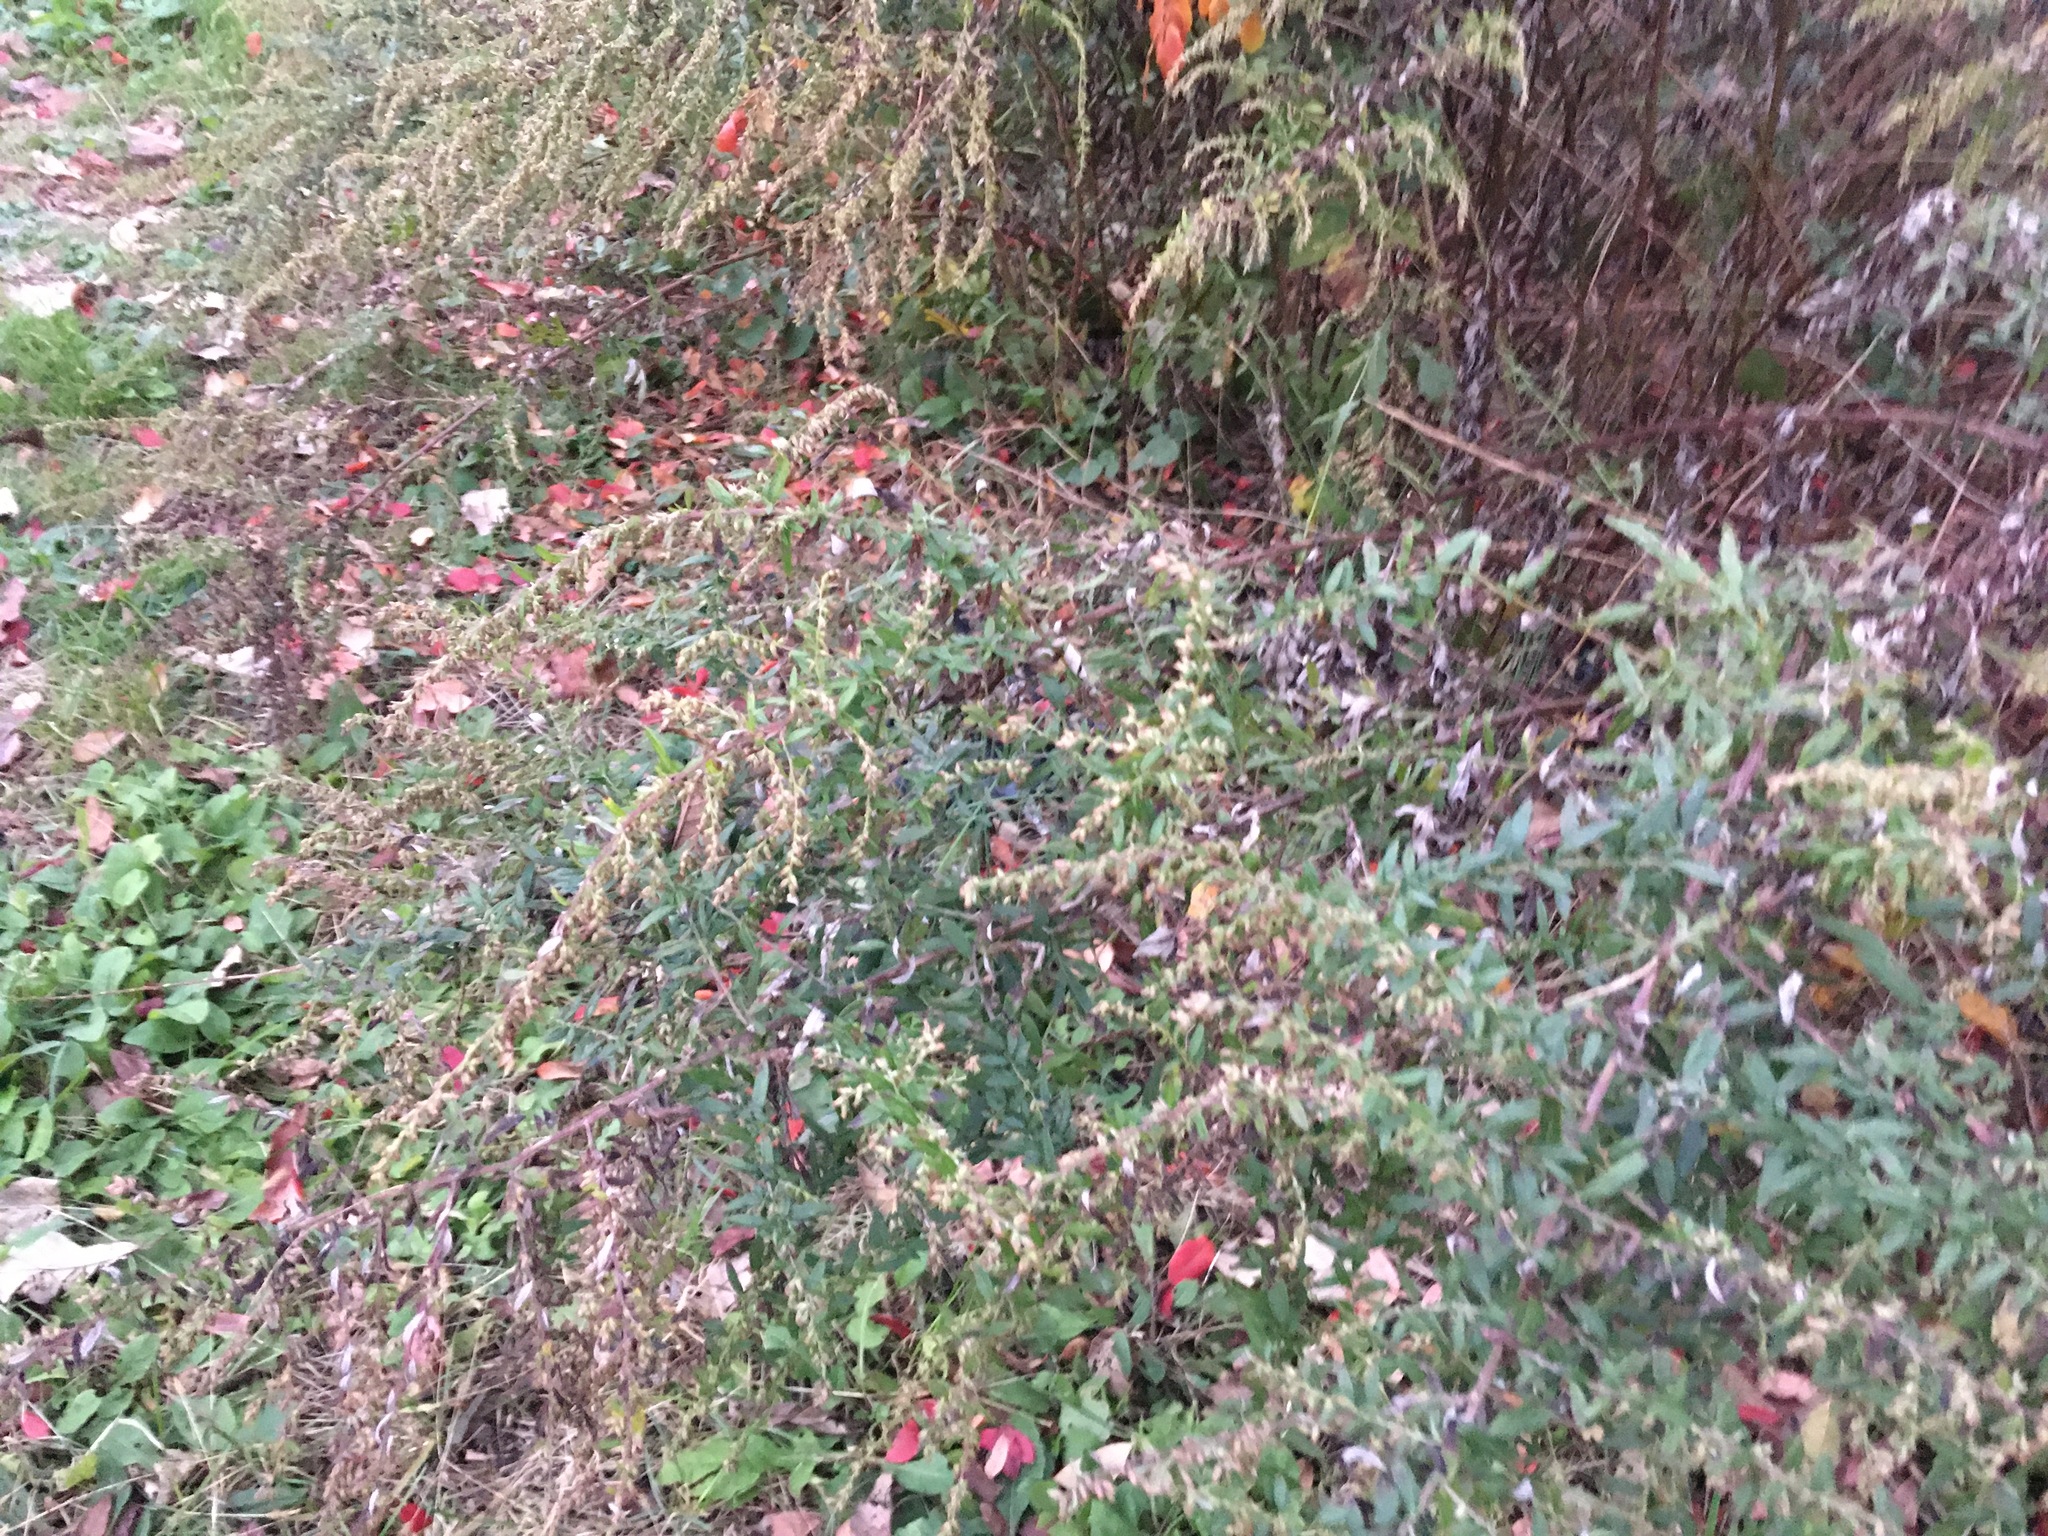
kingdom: Plantae
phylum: Tracheophyta
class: Magnoliopsida
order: Asterales
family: Asteraceae
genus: Artemisia
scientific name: Artemisia vulgaris
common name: Mugwort
